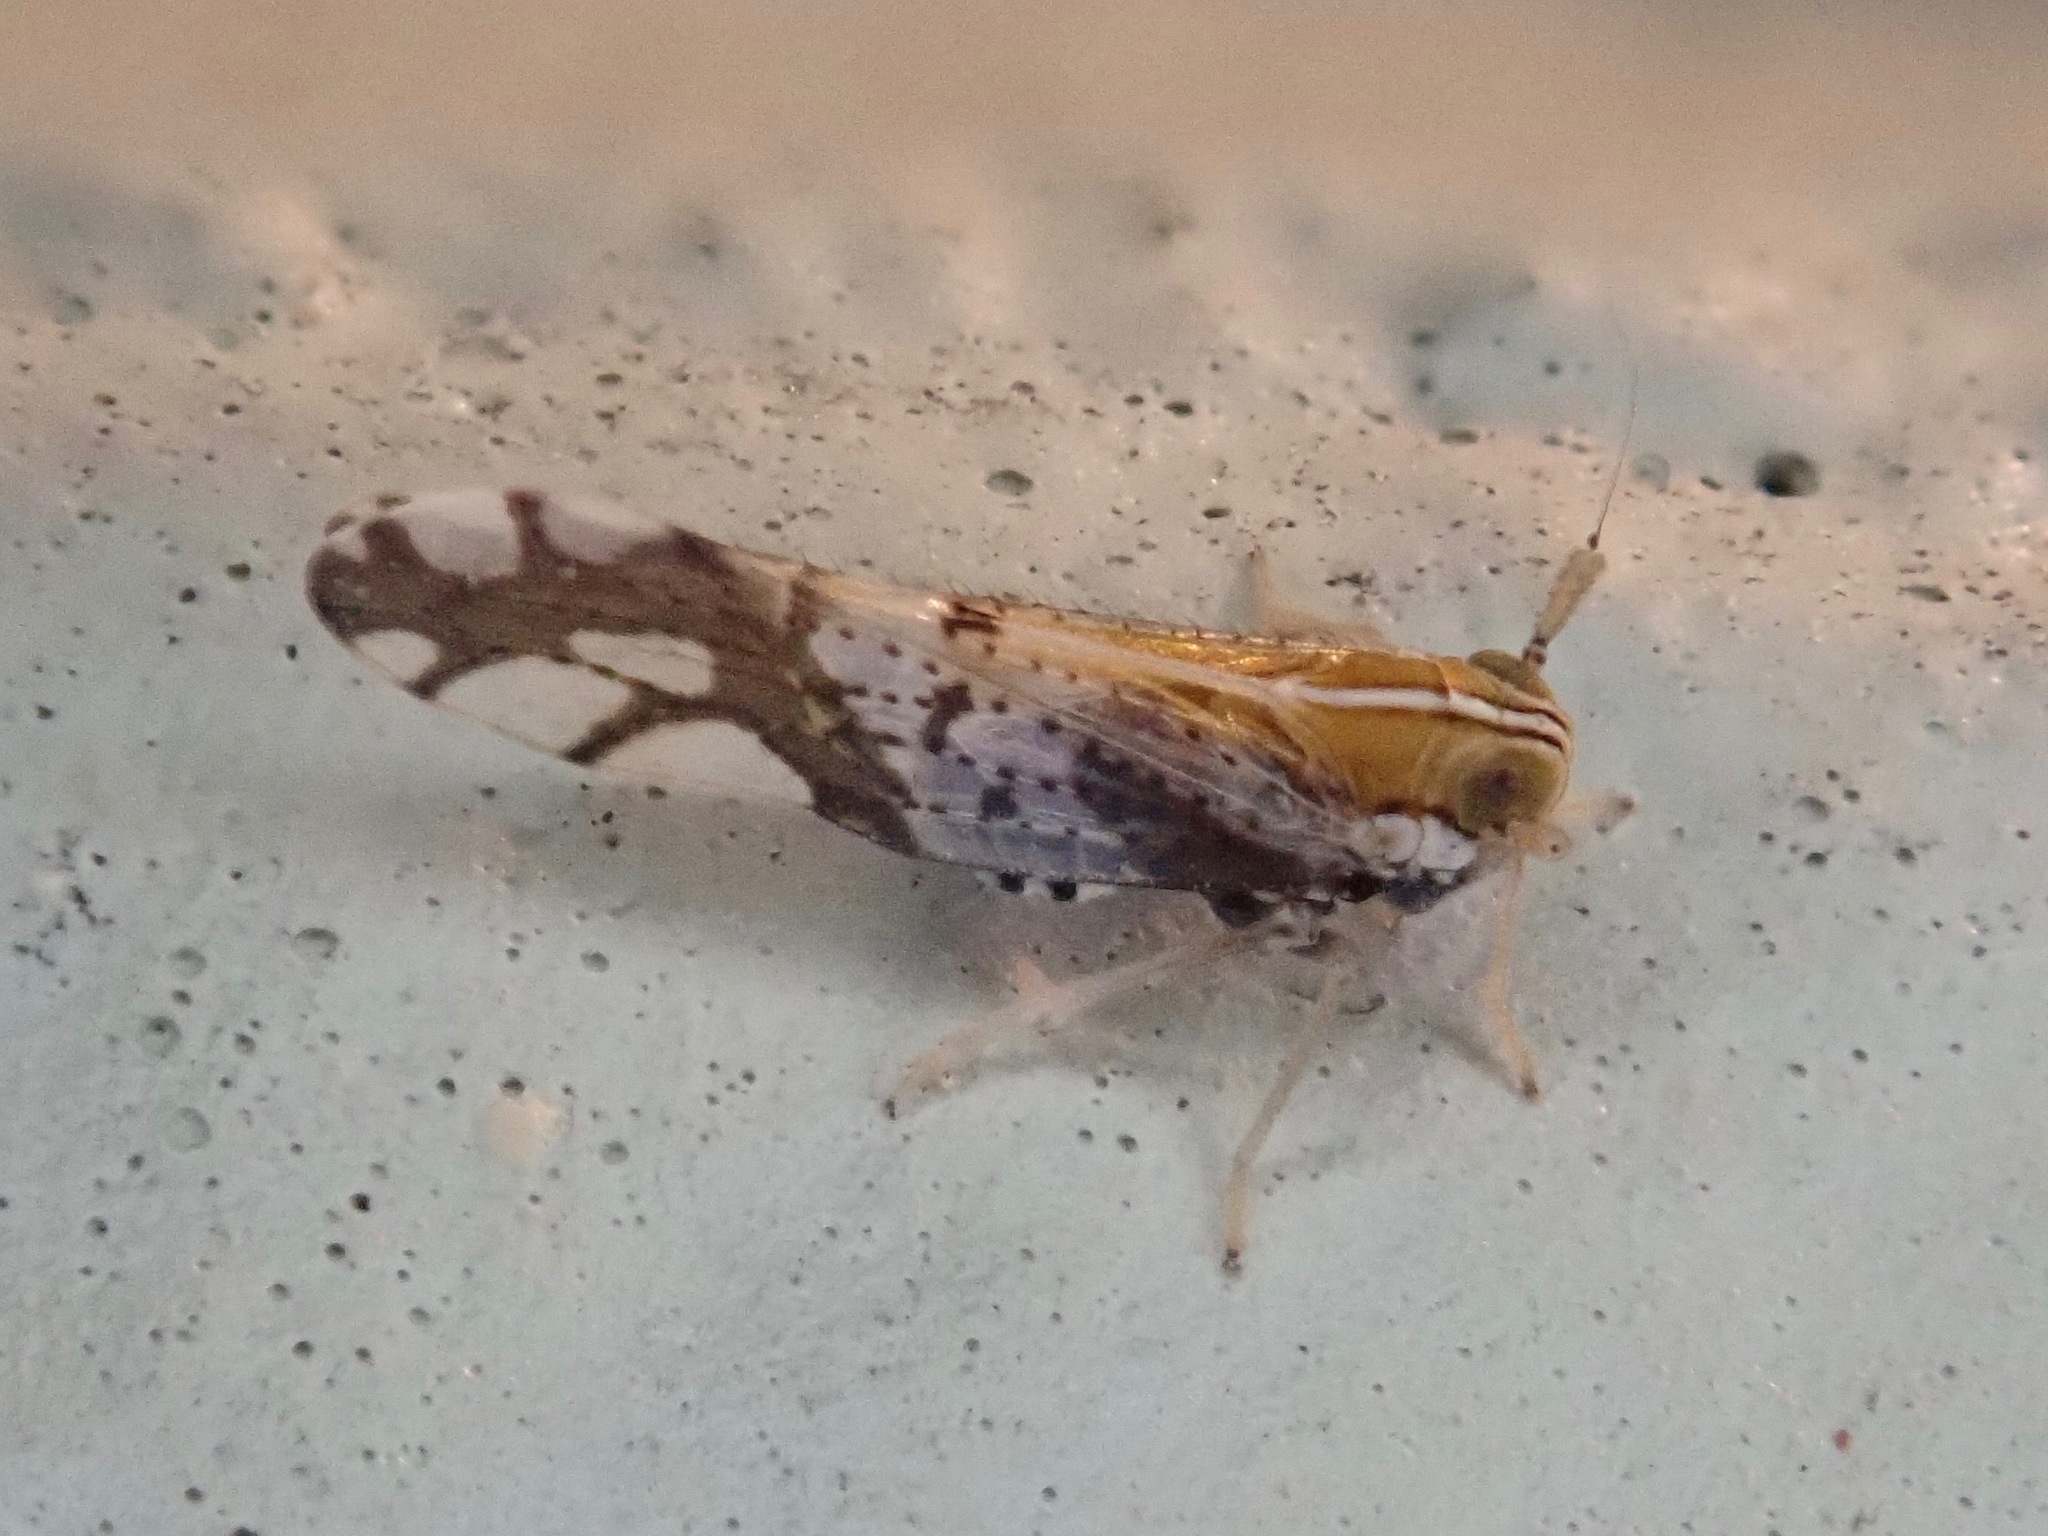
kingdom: Animalia
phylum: Arthropoda
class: Insecta
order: Hemiptera
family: Delphacidae
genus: Liburniella
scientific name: Liburniella ornata
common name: Ornate planthopper
